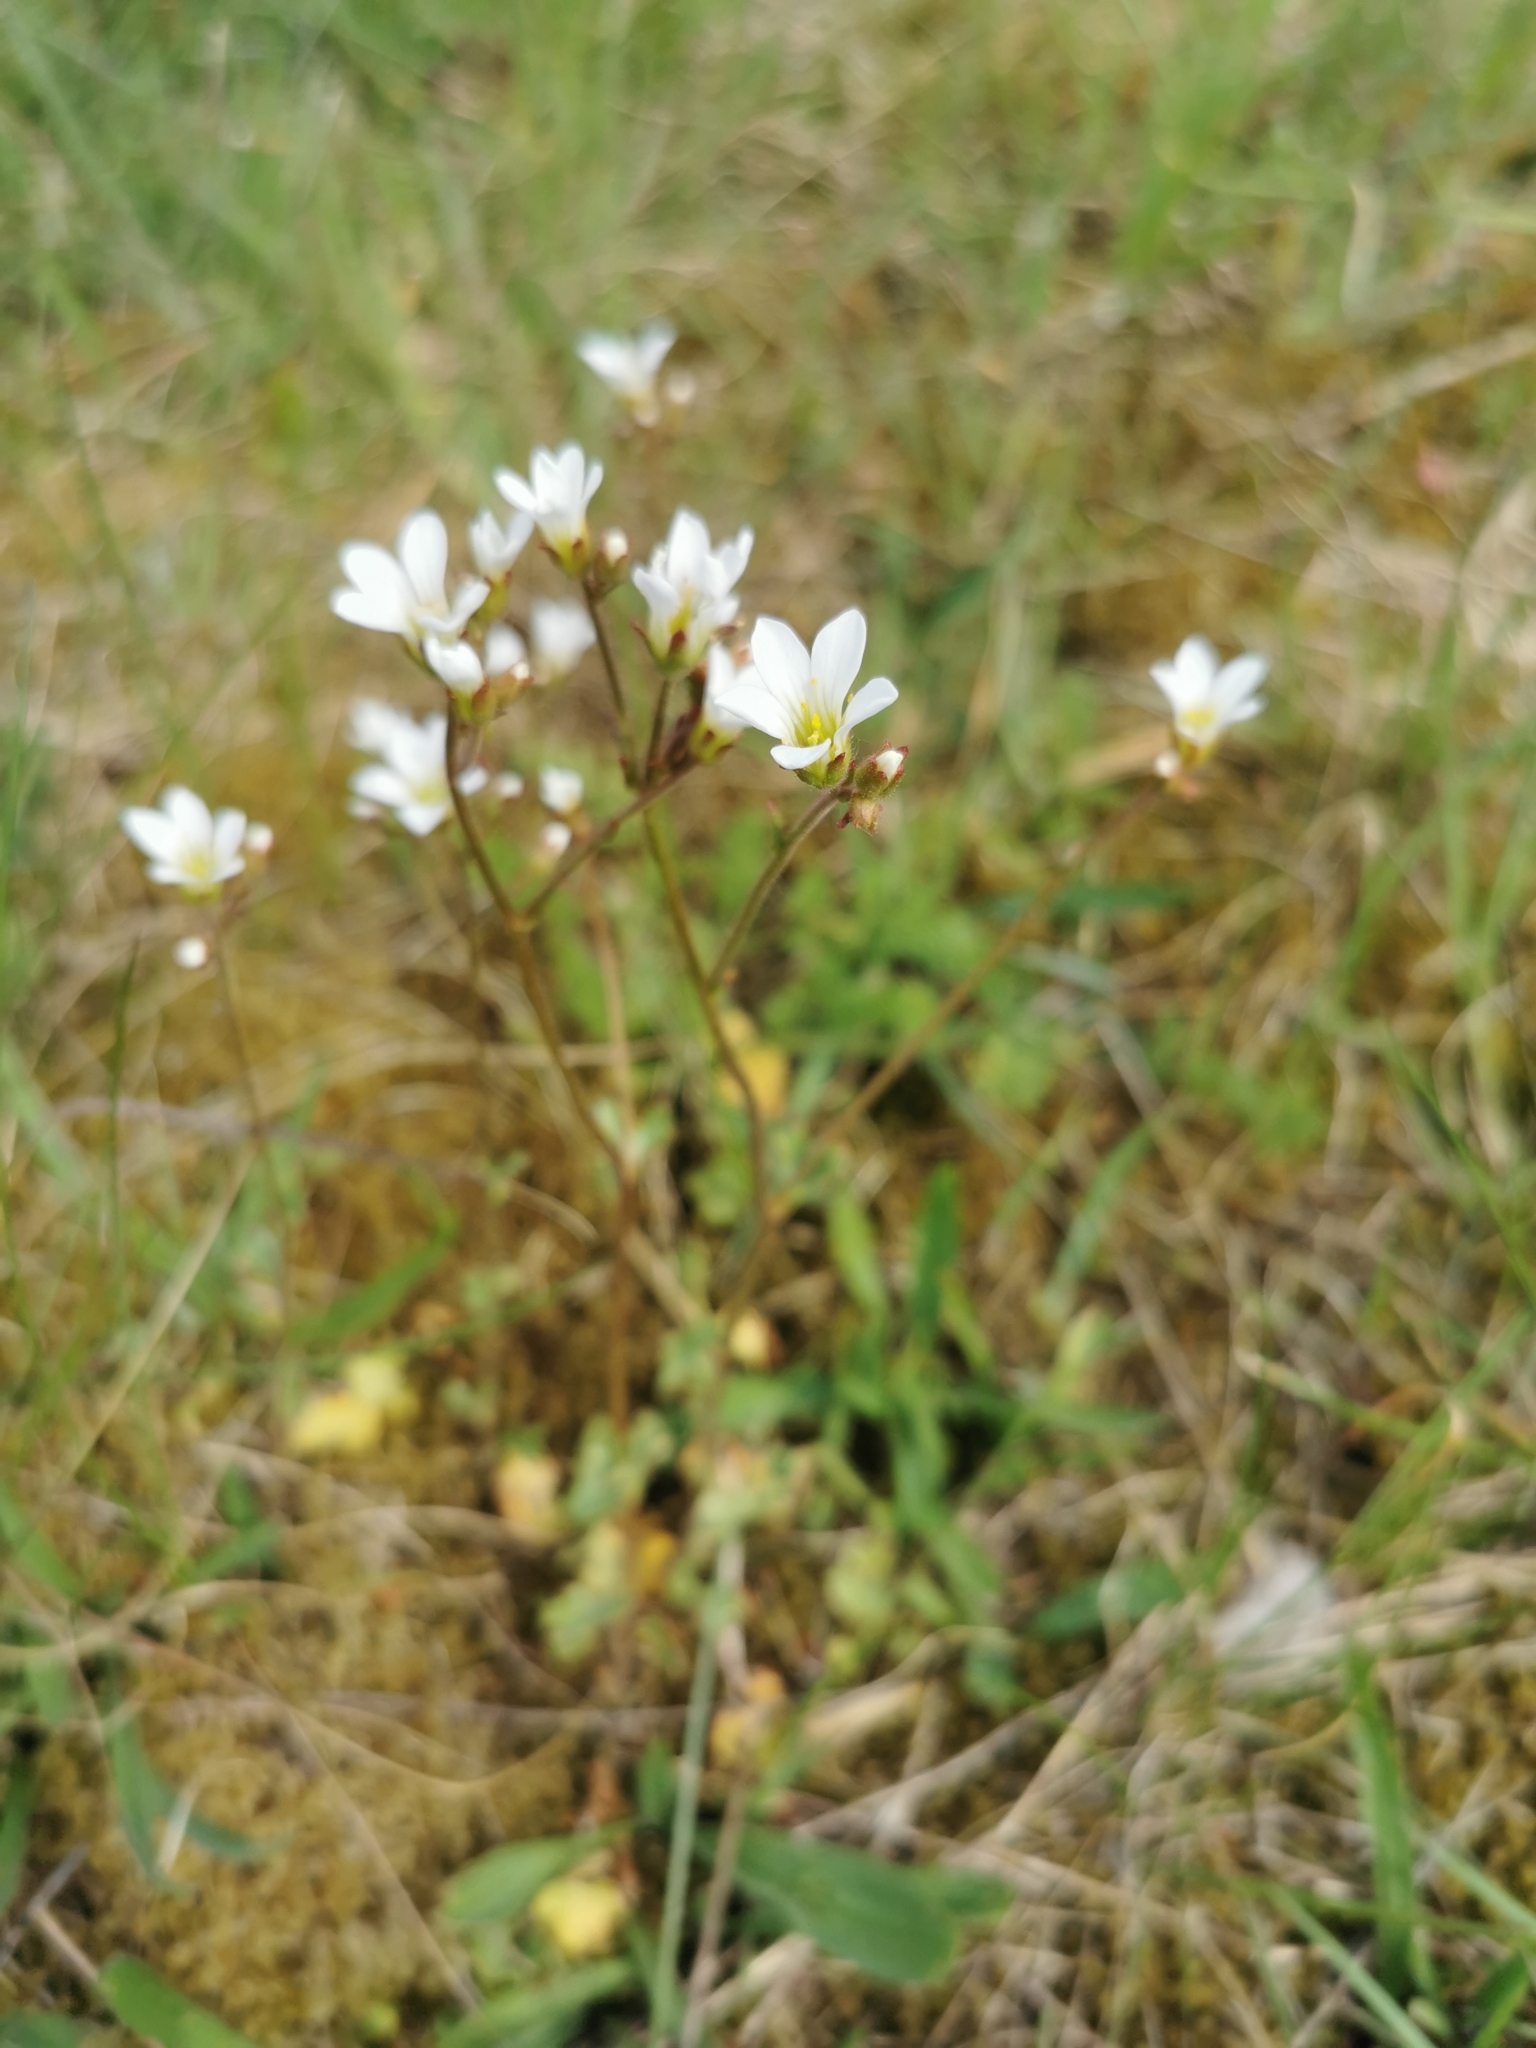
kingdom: Plantae
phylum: Tracheophyta
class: Magnoliopsida
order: Saxifragales
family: Saxifragaceae
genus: Saxifraga
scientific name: Saxifraga granulata
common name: Meadow saxifrage
